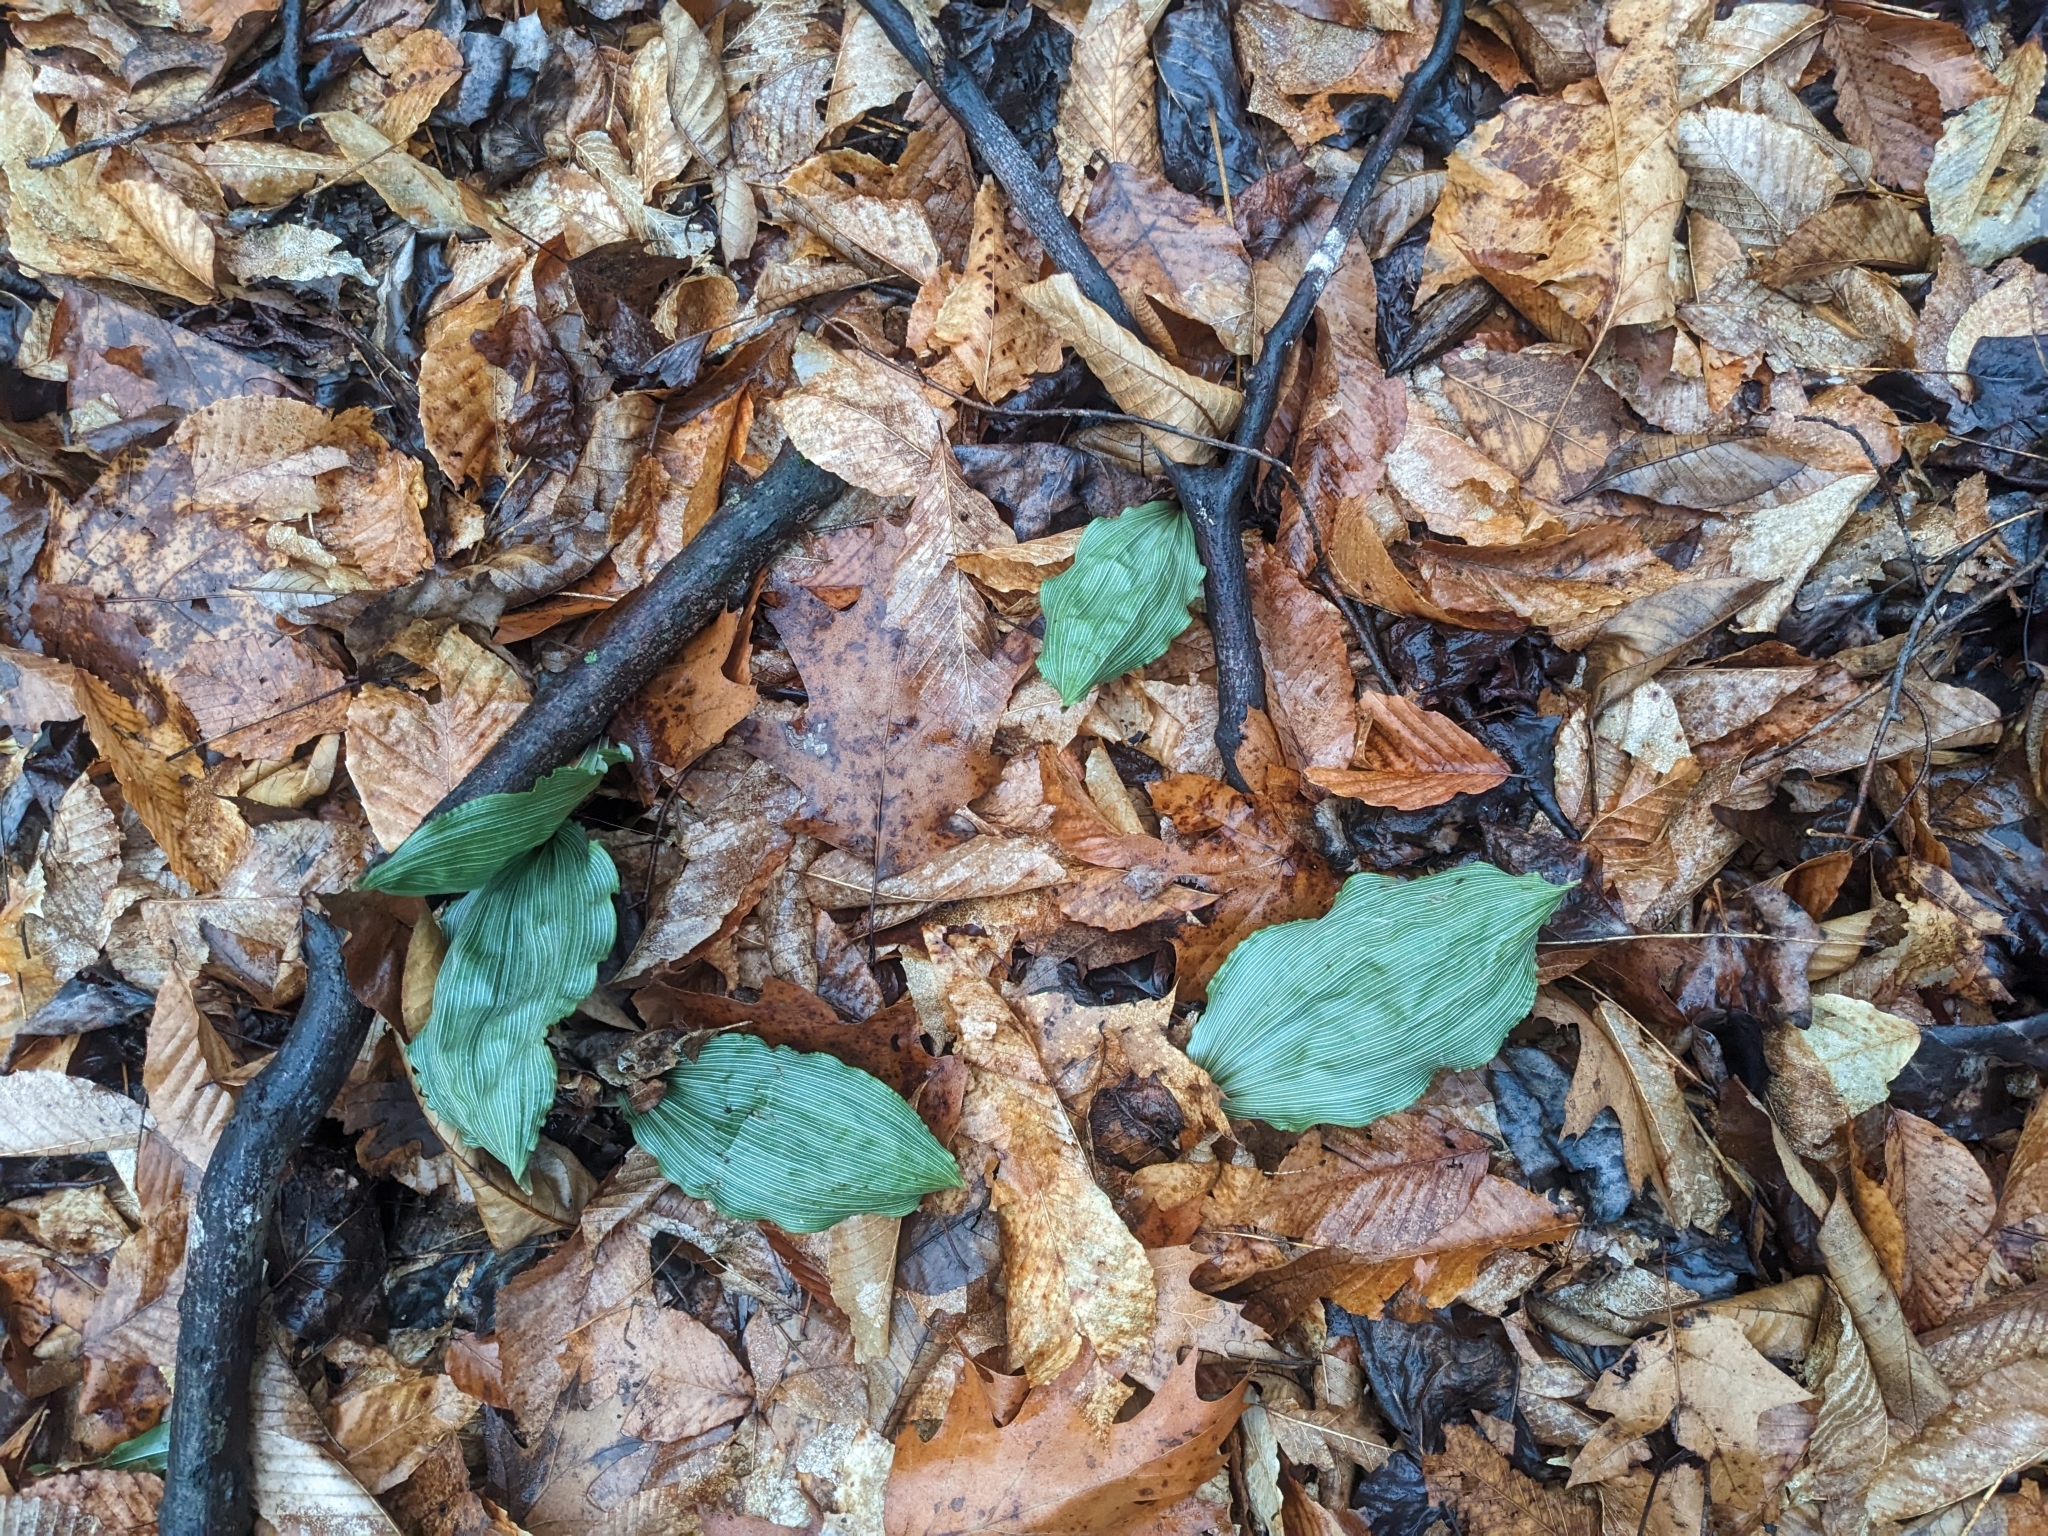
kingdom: Plantae
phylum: Tracheophyta
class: Liliopsida
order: Asparagales
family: Orchidaceae
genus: Aplectrum
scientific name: Aplectrum hyemale
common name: Adam-and-eve
